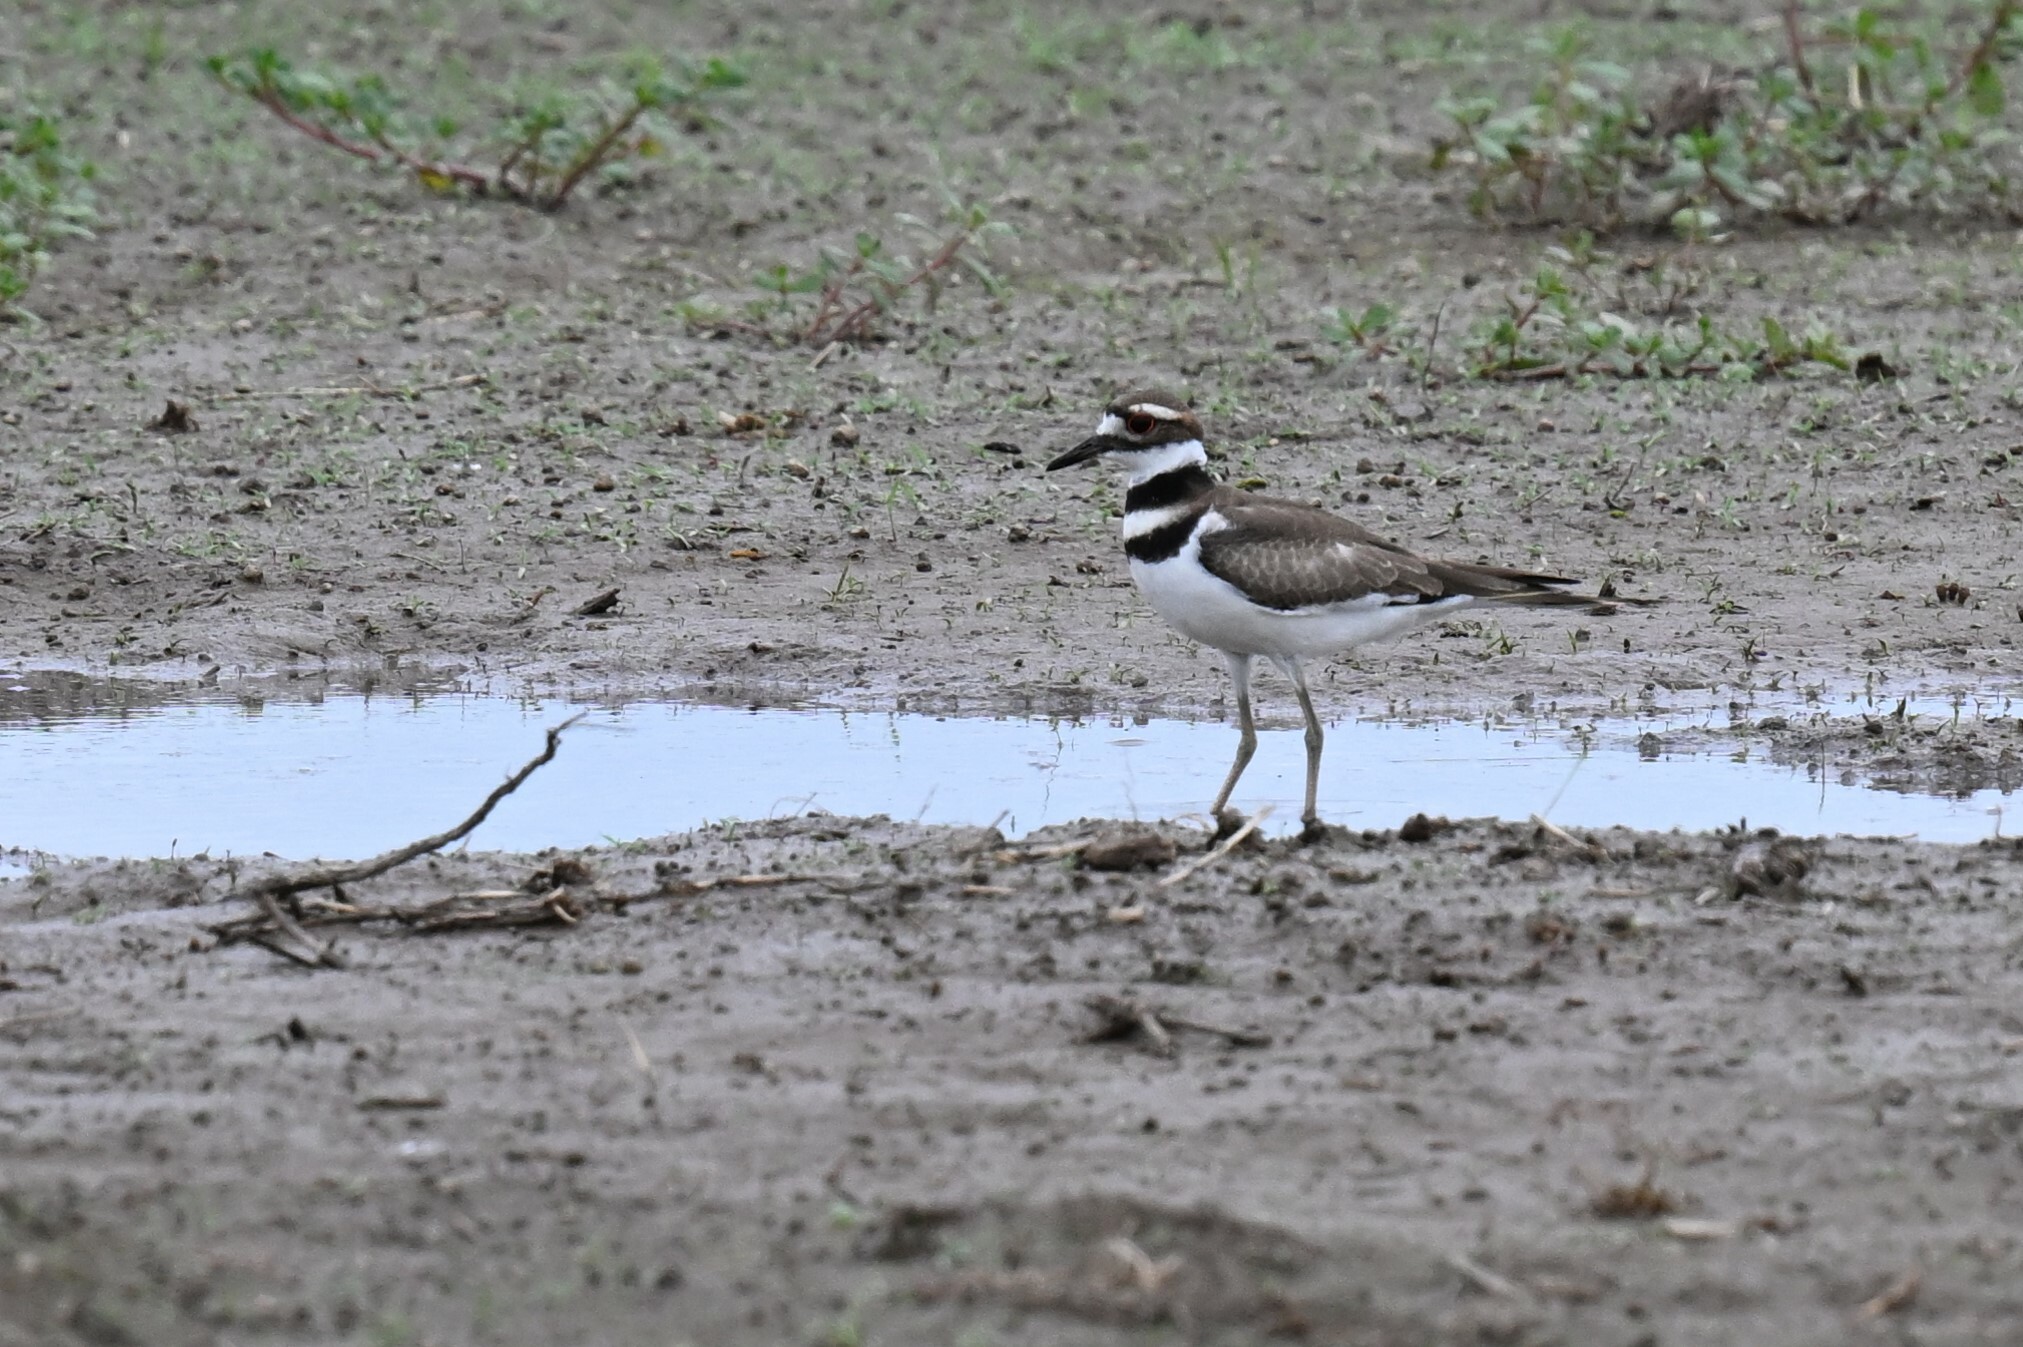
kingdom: Animalia
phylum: Chordata
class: Aves
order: Charadriiformes
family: Charadriidae
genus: Charadrius
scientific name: Charadrius vociferus
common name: Killdeer
